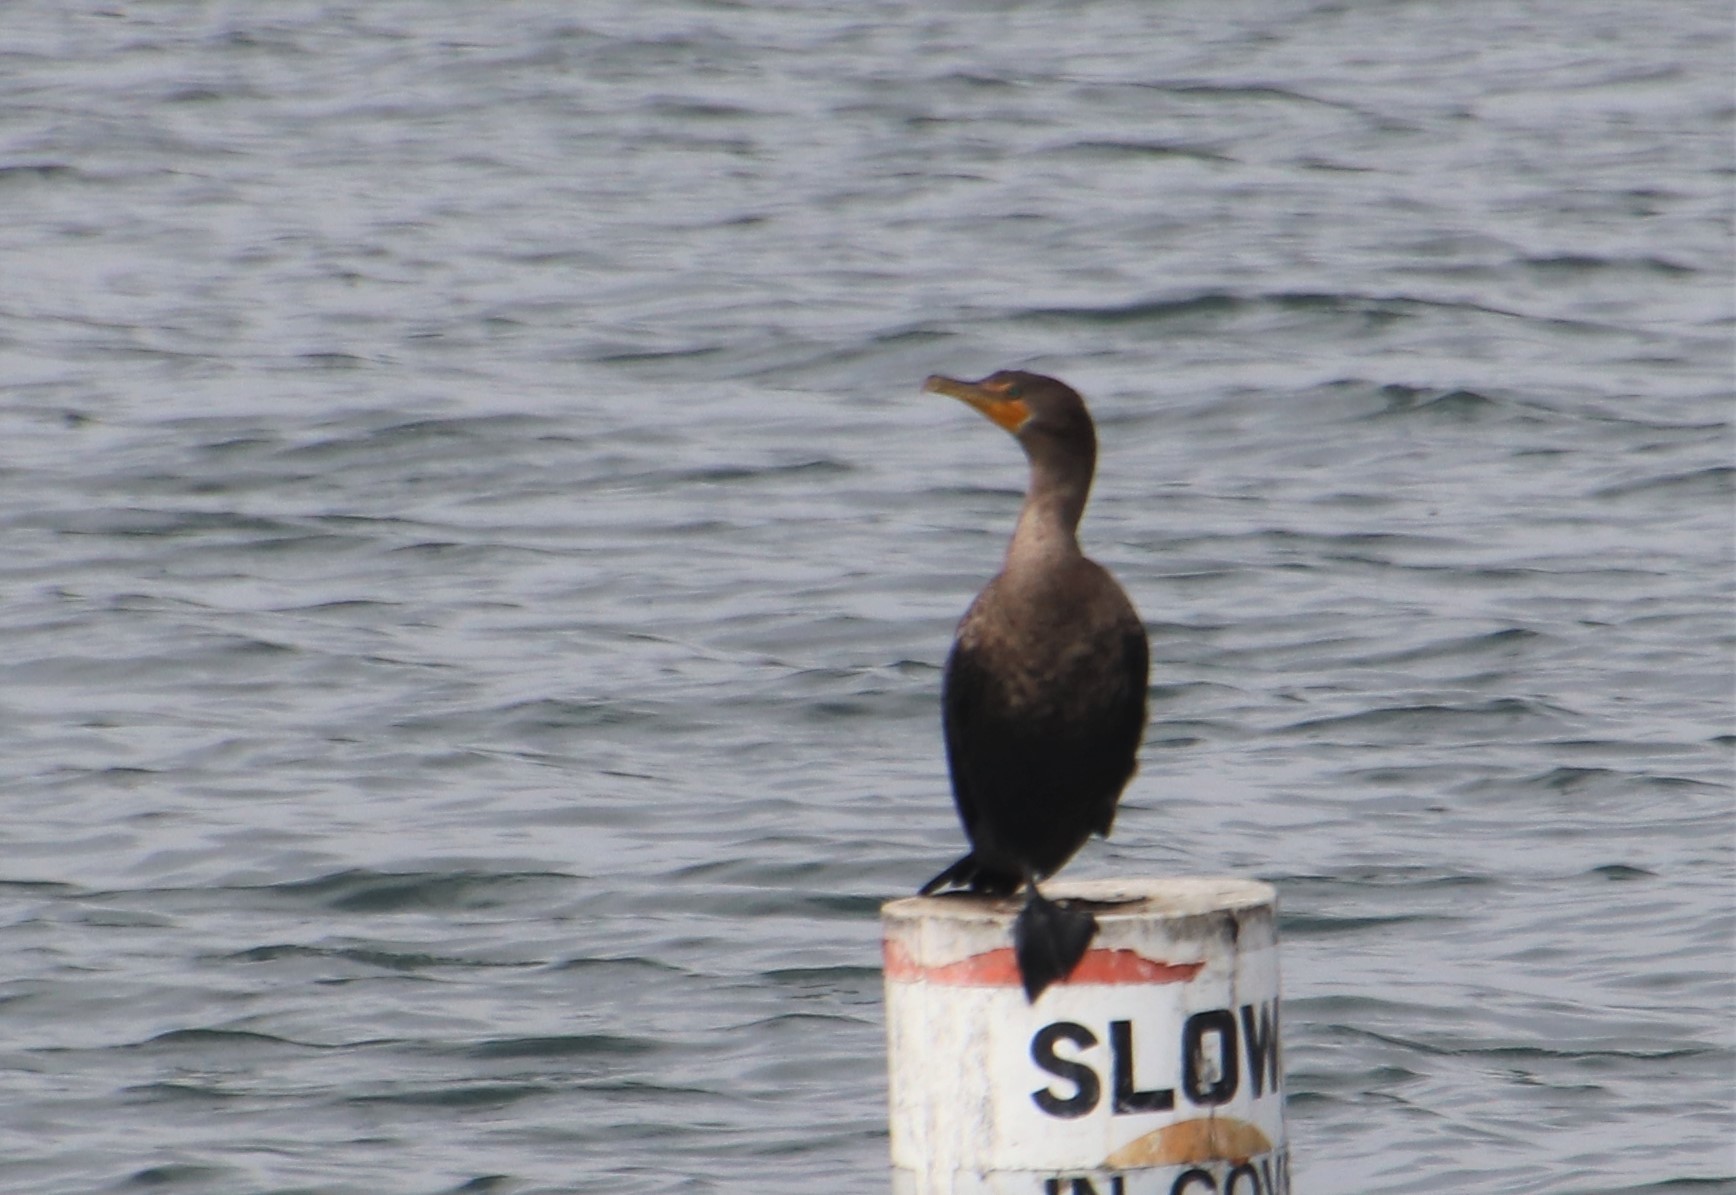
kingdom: Animalia
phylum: Chordata
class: Aves
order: Suliformes
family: Phalacrocoracidae
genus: Phalacrocorax
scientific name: Phalacrocorax auritus
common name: Double-crested cormorant
